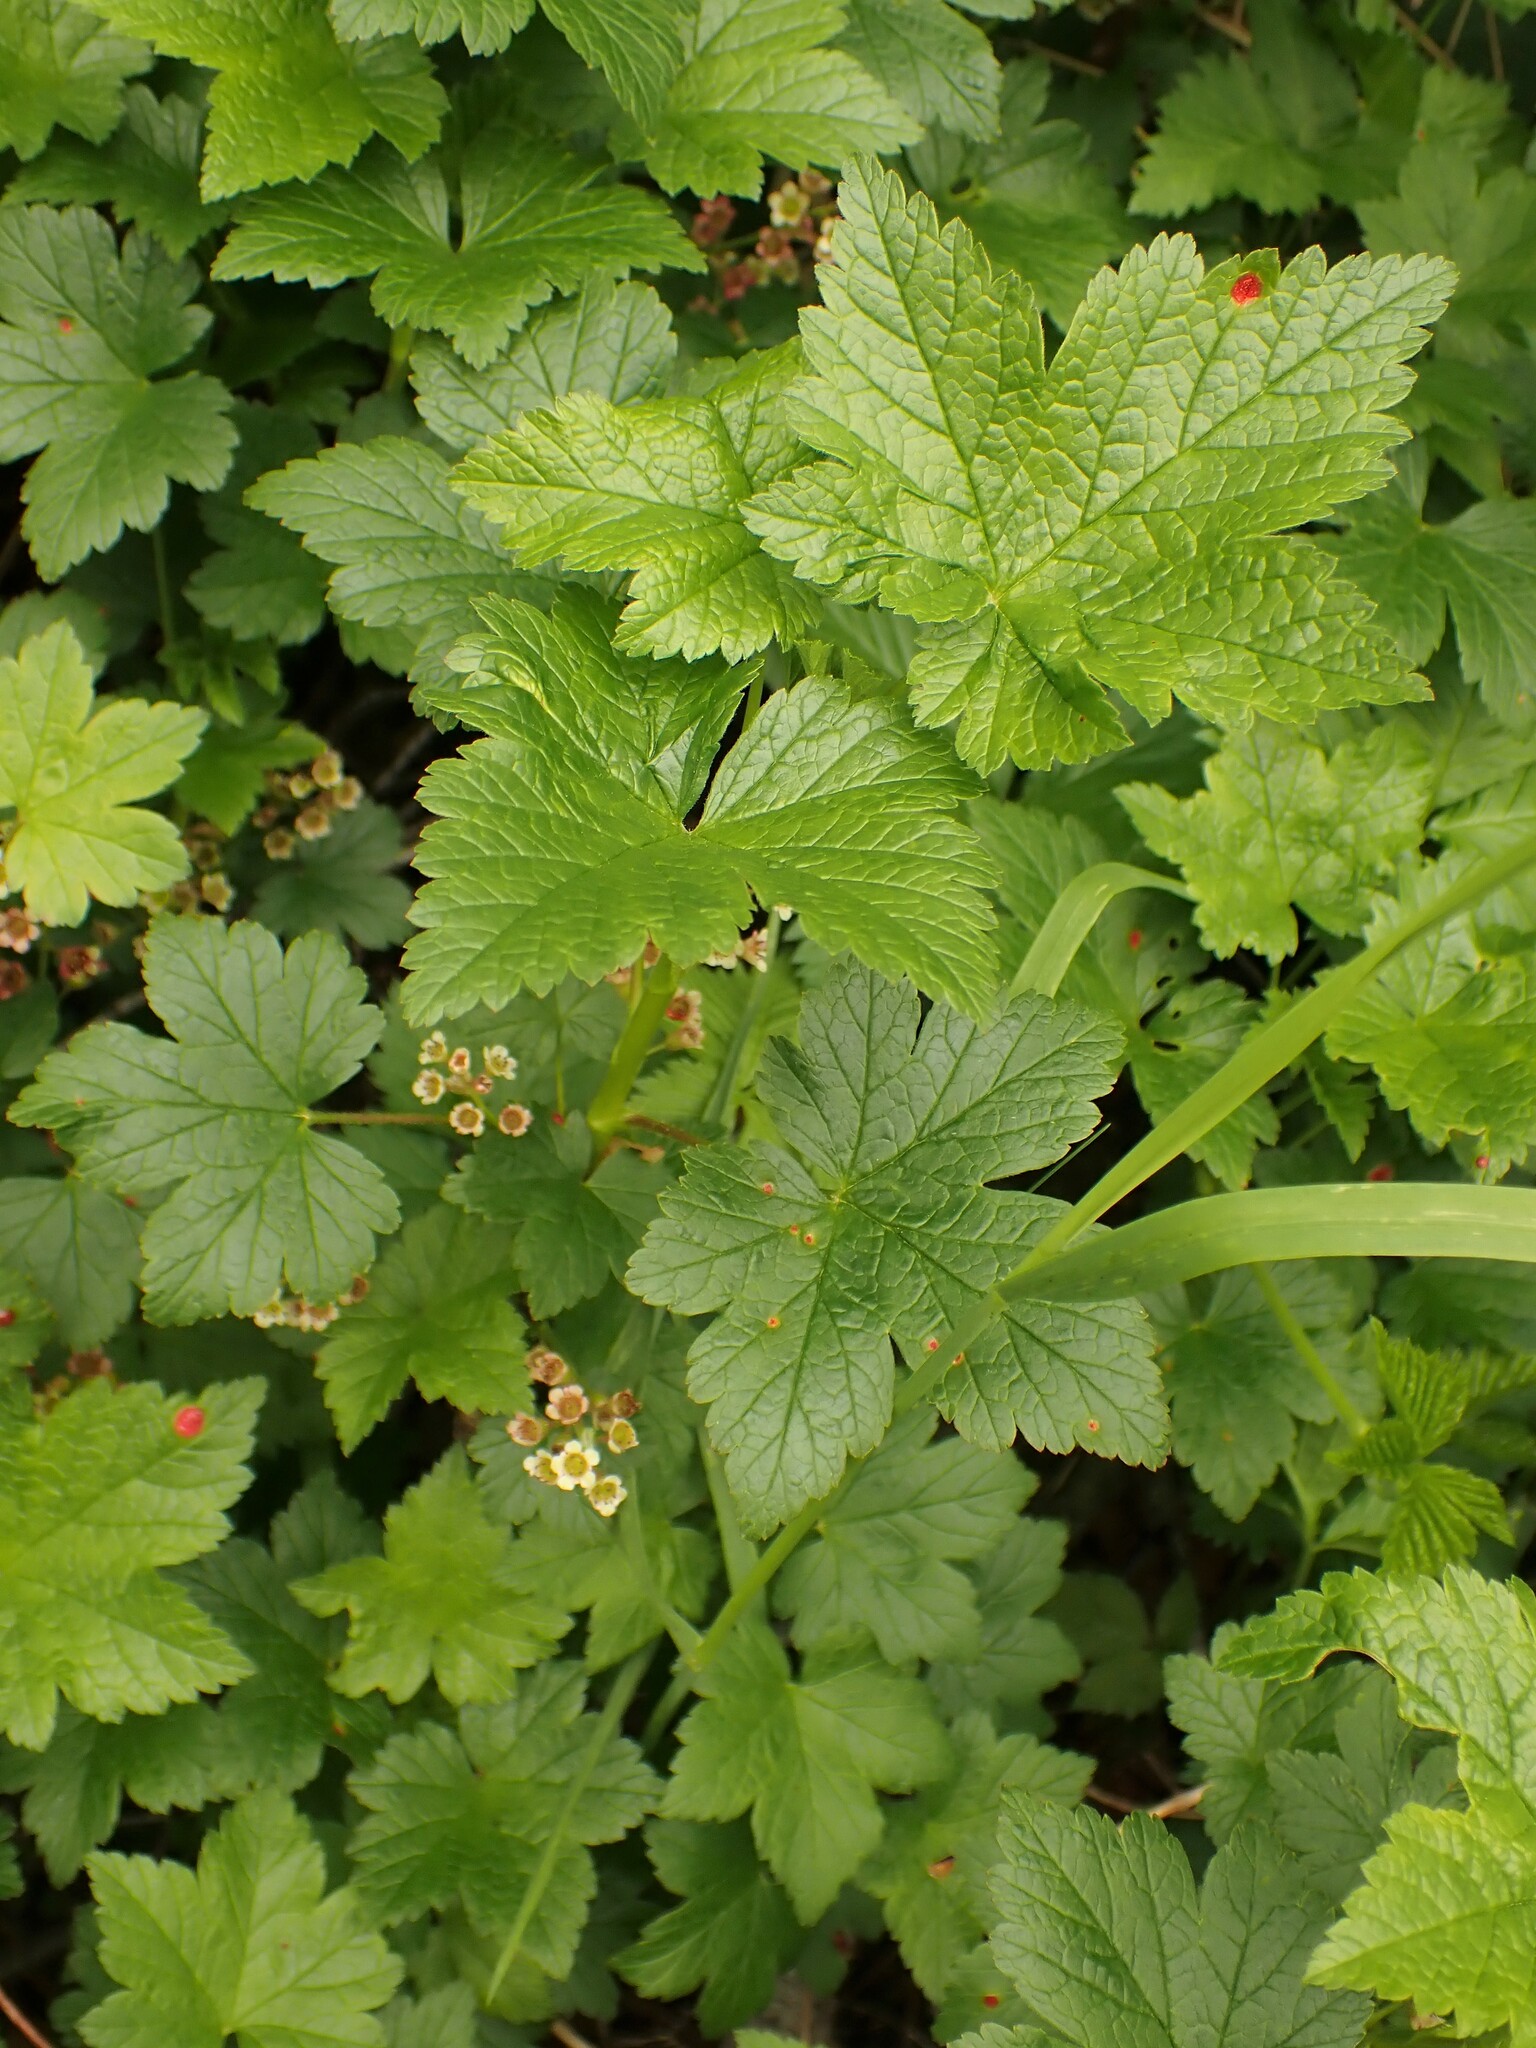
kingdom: Plantae
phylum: Tracheophyta
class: Magnoliopsida
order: Saxifragales
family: Grossulariaceae
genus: Ribes
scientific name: Ribes glandulosum
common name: Skunk currant
